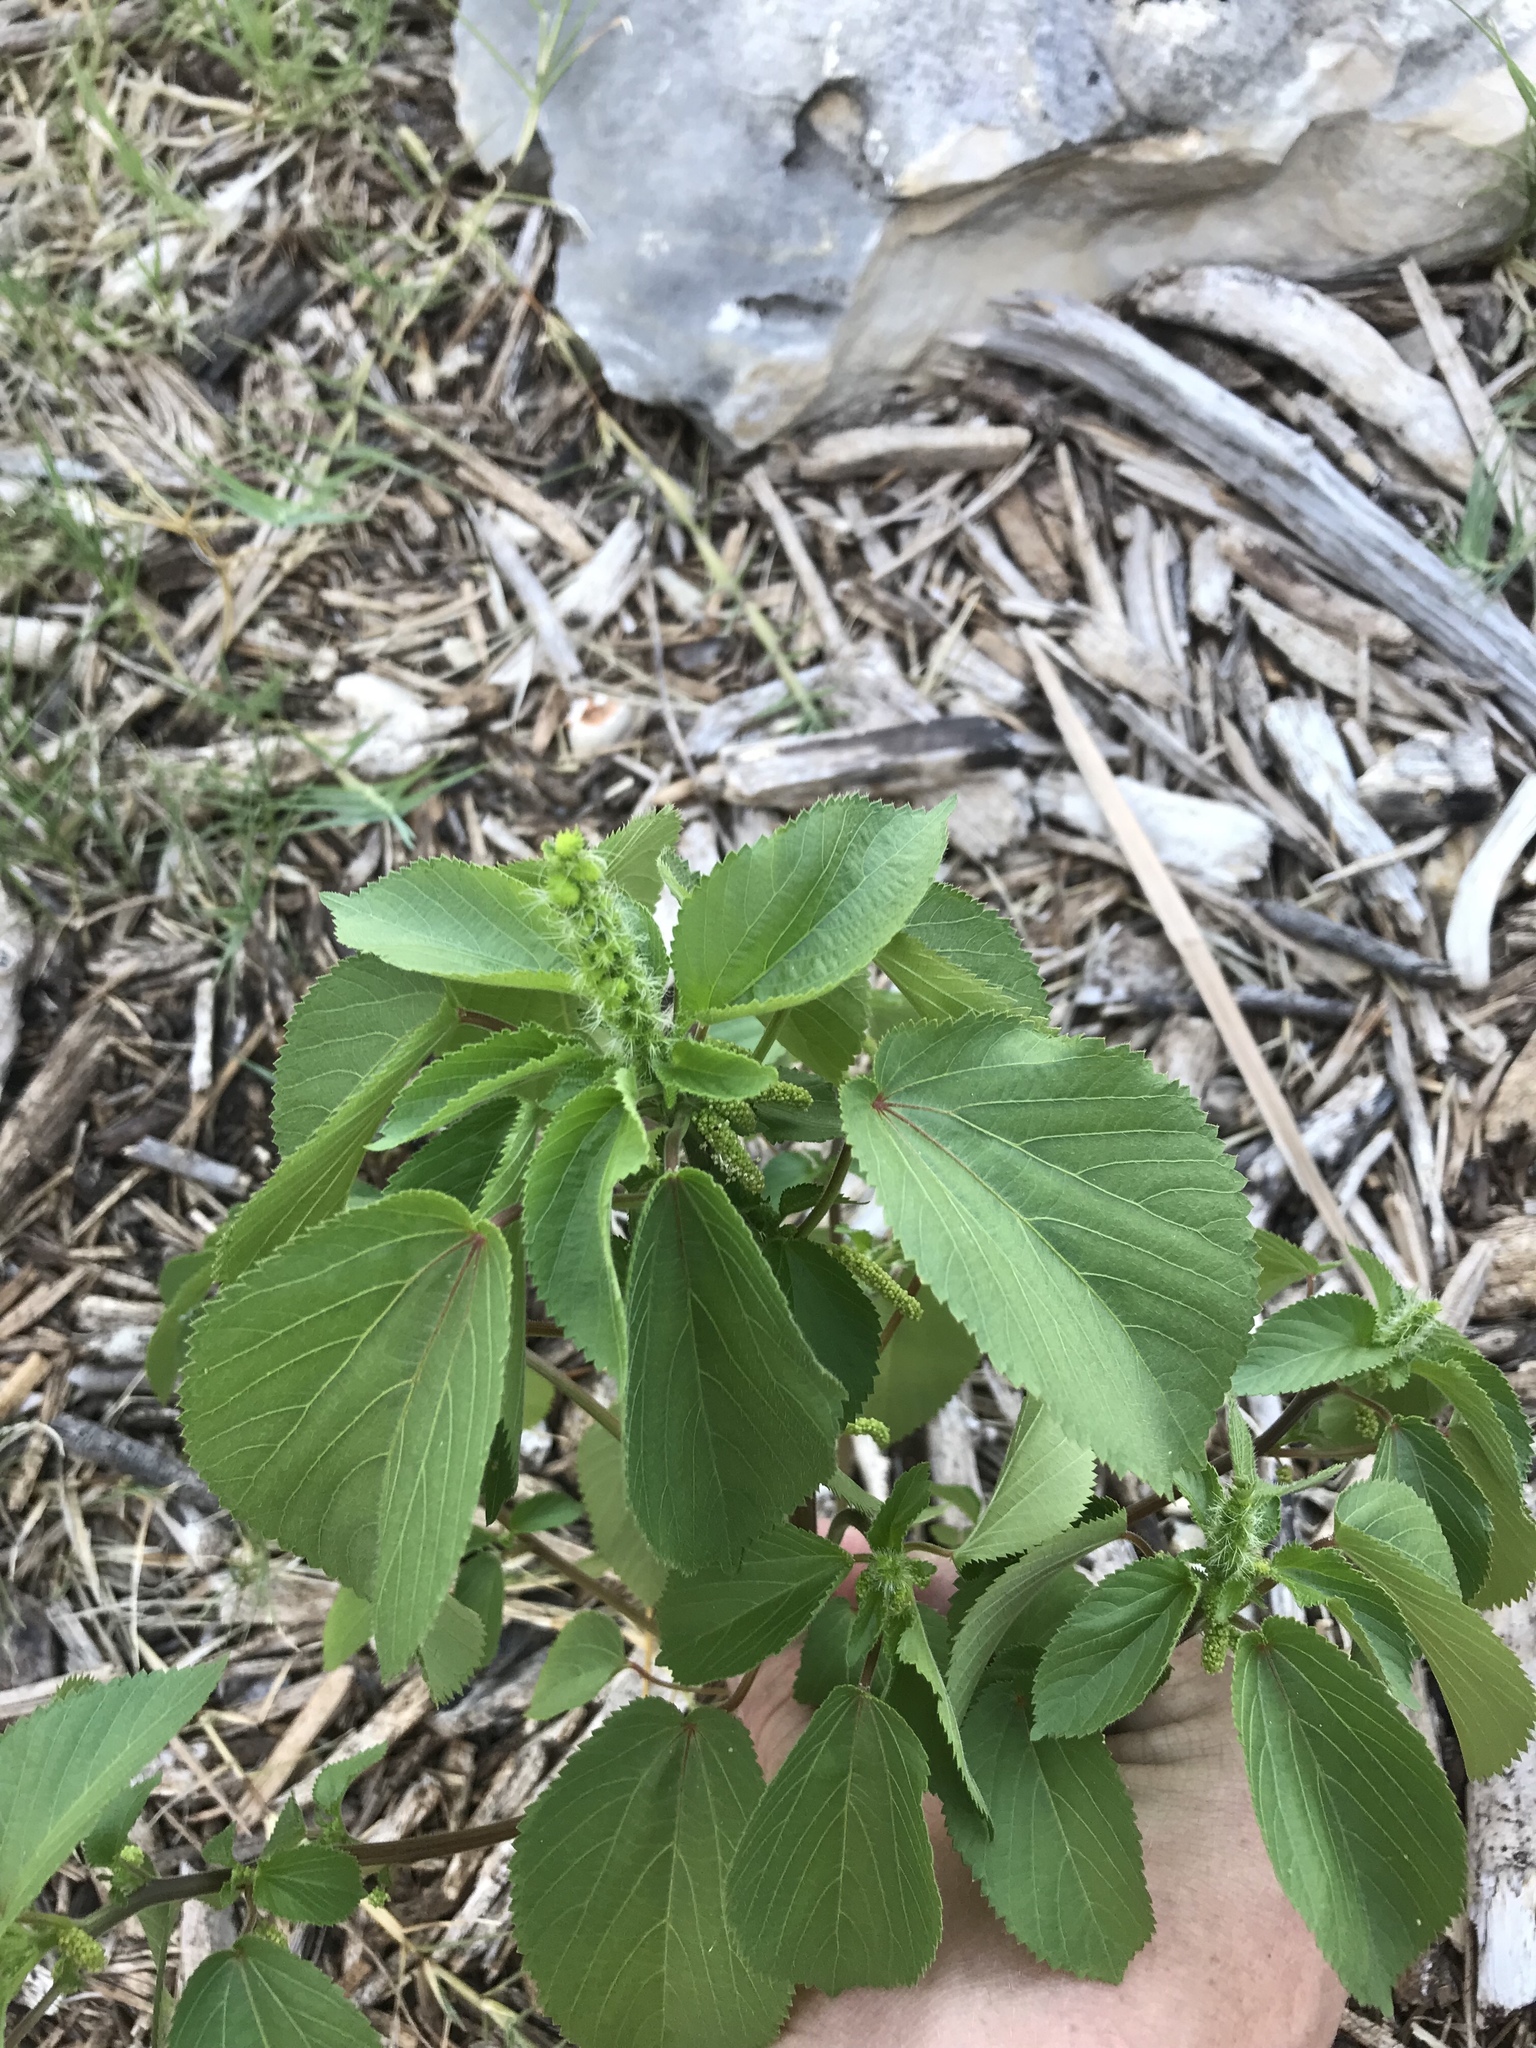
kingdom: Plantae
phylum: Tracheophyta
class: Magnoliopsida
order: Malpighiales
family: Euphorbiaceae
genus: Acalypha
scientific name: Acalypha ostryifolia
